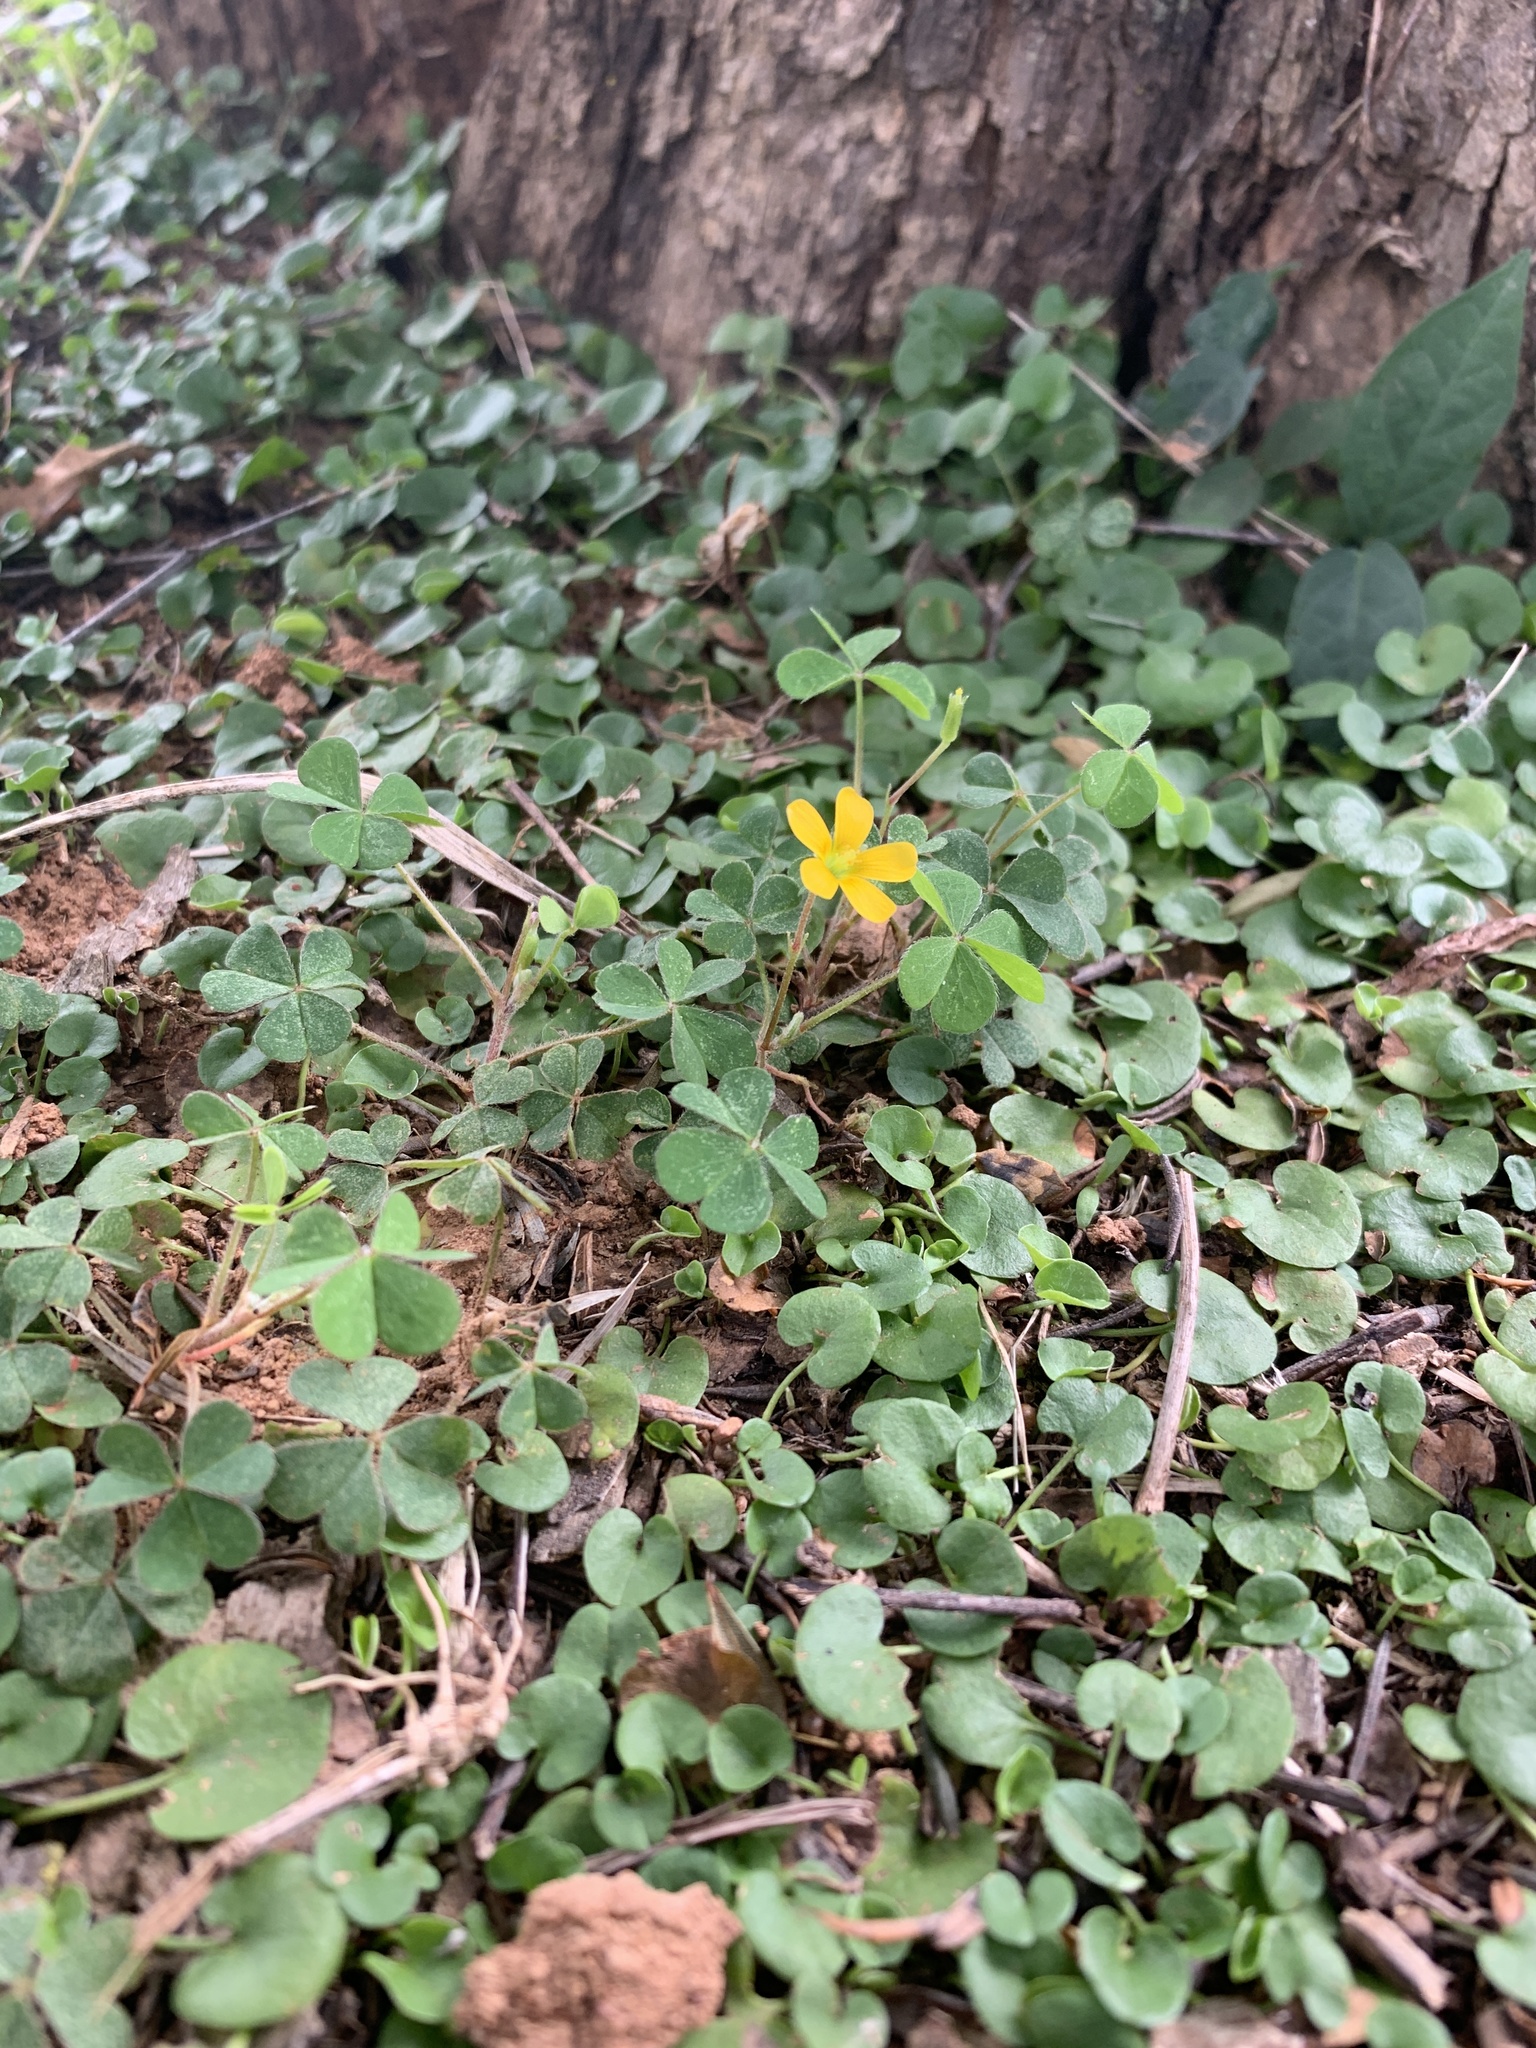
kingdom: Plantae
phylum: Tracheophyta
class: Magnoliopsida
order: Oxalidales
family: Oxalidaceae
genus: Oxalis
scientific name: Oxalis corniculata
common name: Procumbent yellow-sorrel
